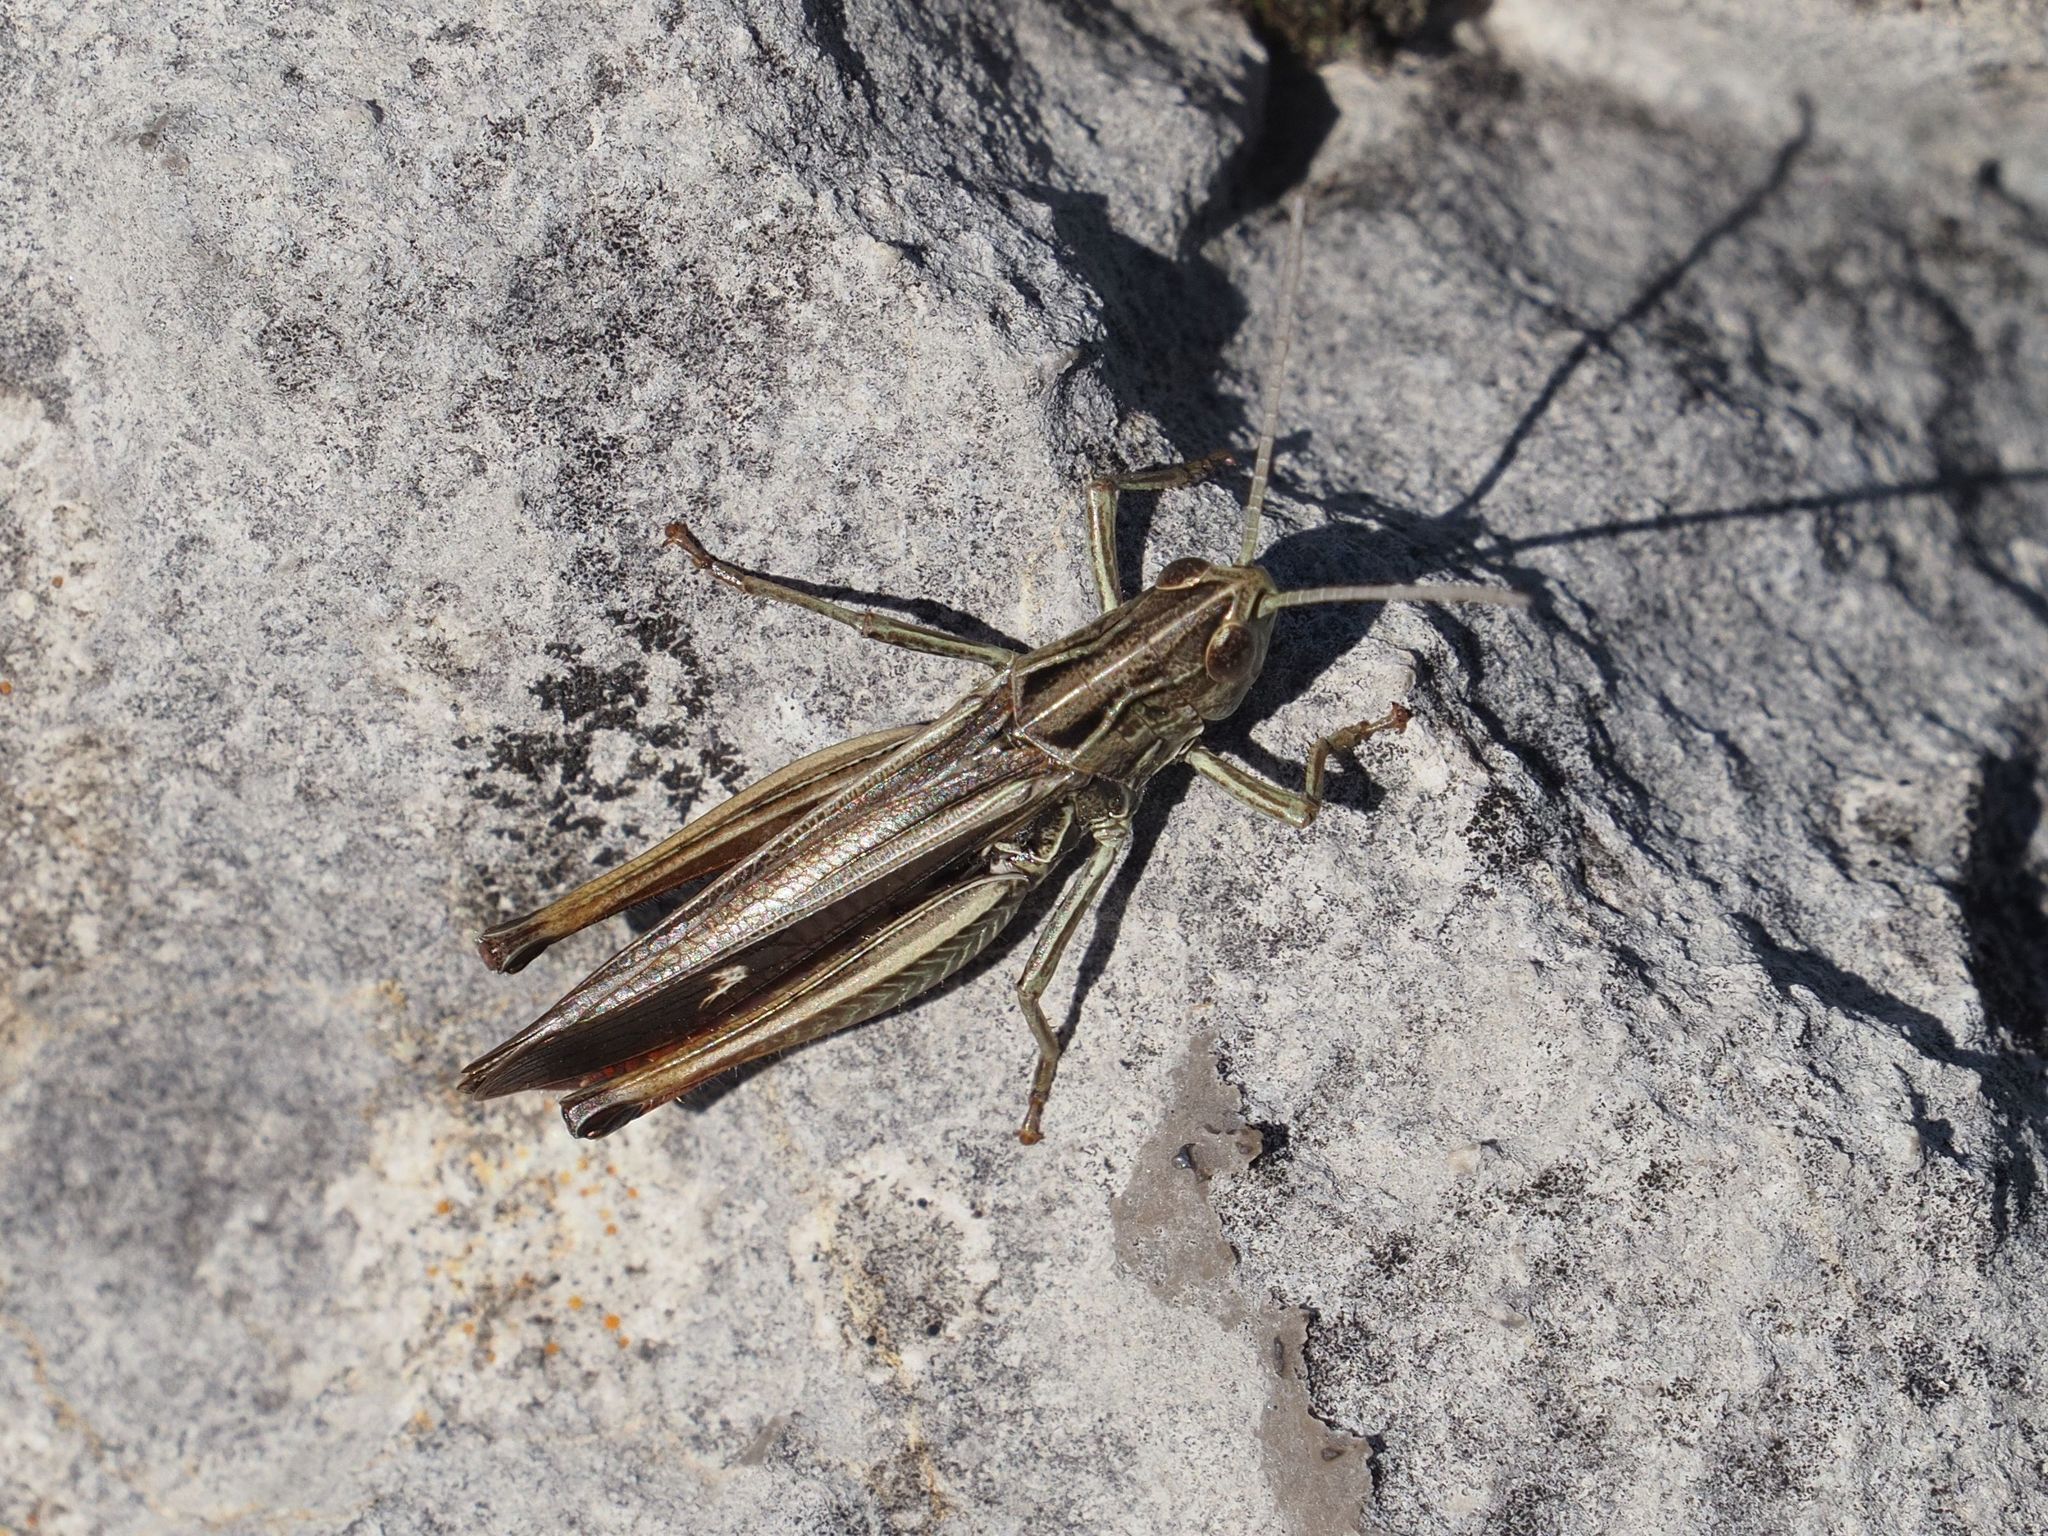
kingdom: Animalia
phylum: Arthropoda
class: Insecta
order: Orthoptera
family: Acrididae
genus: Stenobothrus
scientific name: Stenobothrus lineatus
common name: Stripe-winged grasshopper
